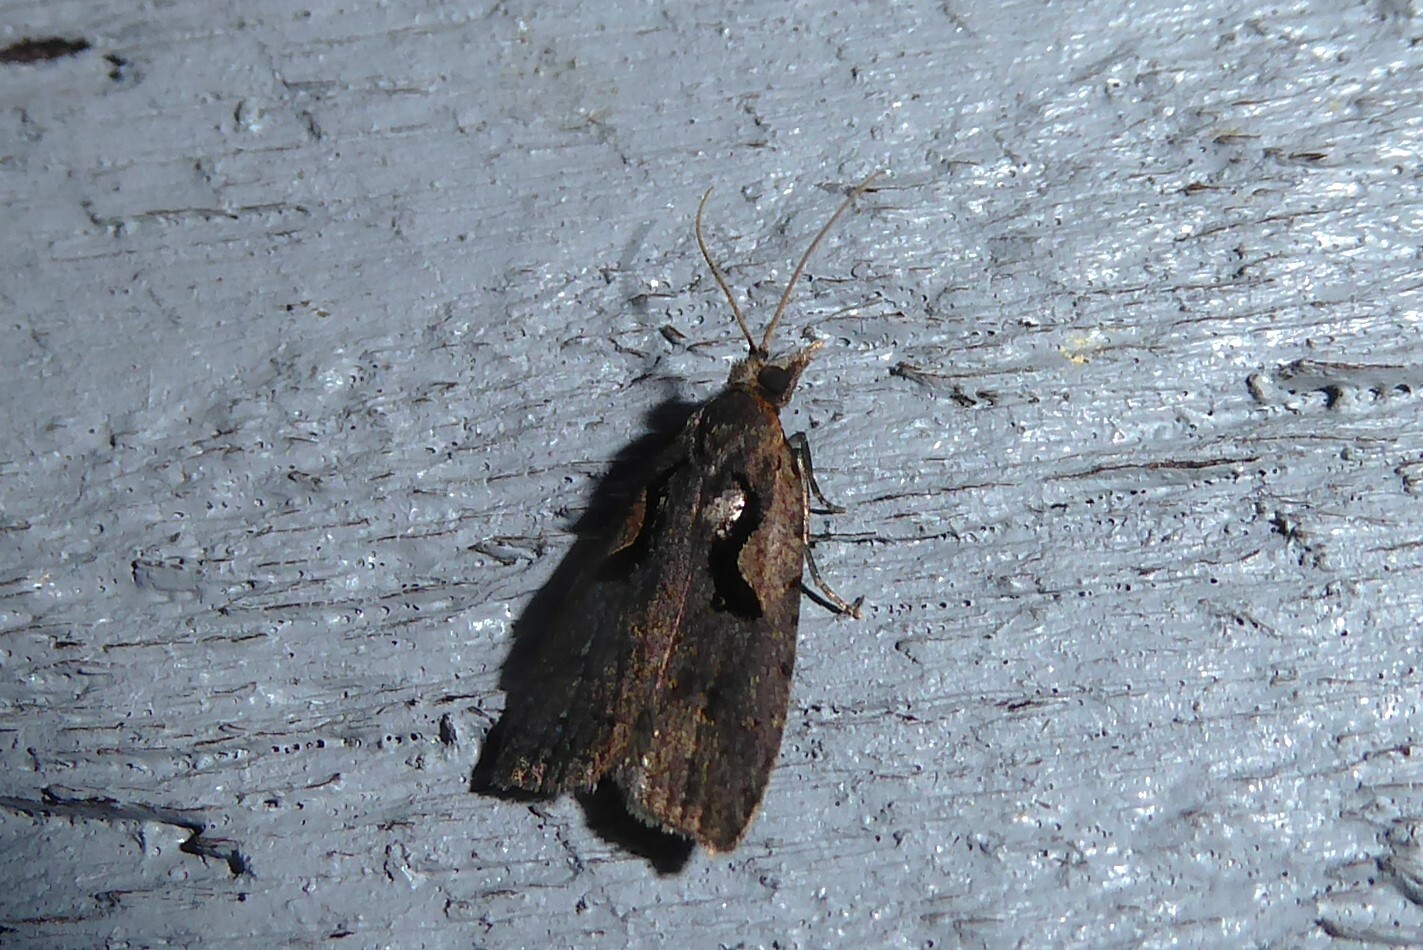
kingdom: Animalia
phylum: Arthropoda
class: Insecta
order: Lepidoptera
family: Tortricidae
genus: Cnephasia
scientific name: Cnephasia jactatana
